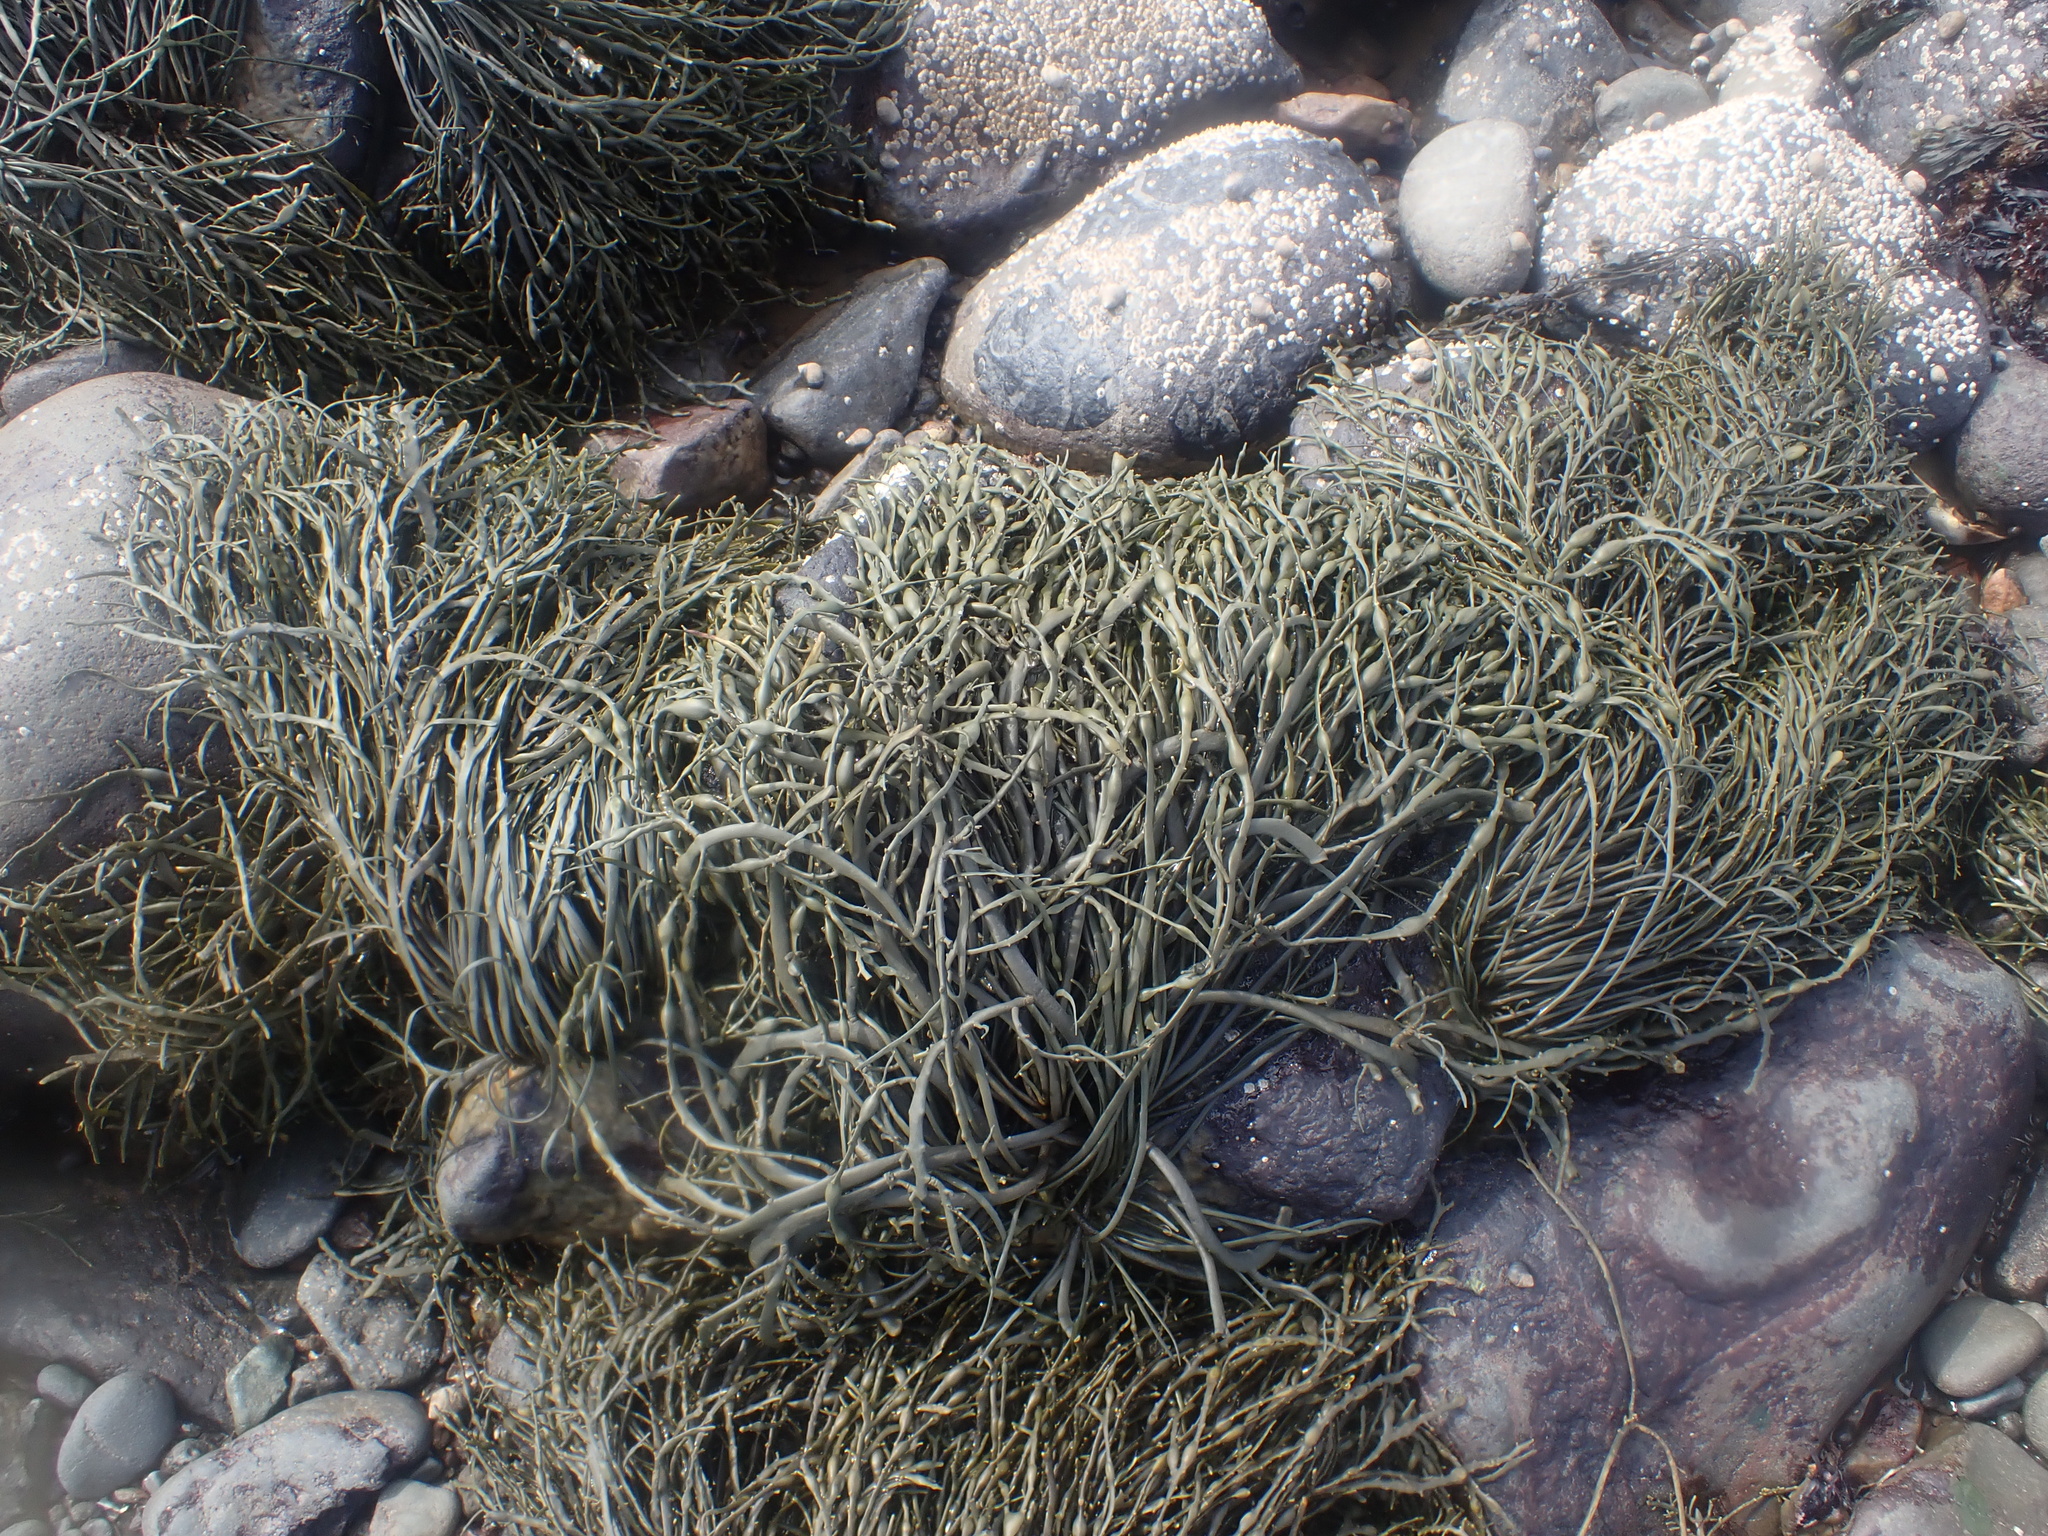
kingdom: Chromista
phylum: Ochrophyta
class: Phaeophyceae
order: Fucales
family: Fucaceae
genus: Ascophyllum
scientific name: Ascophyllum nodosum
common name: Knotted wrack
